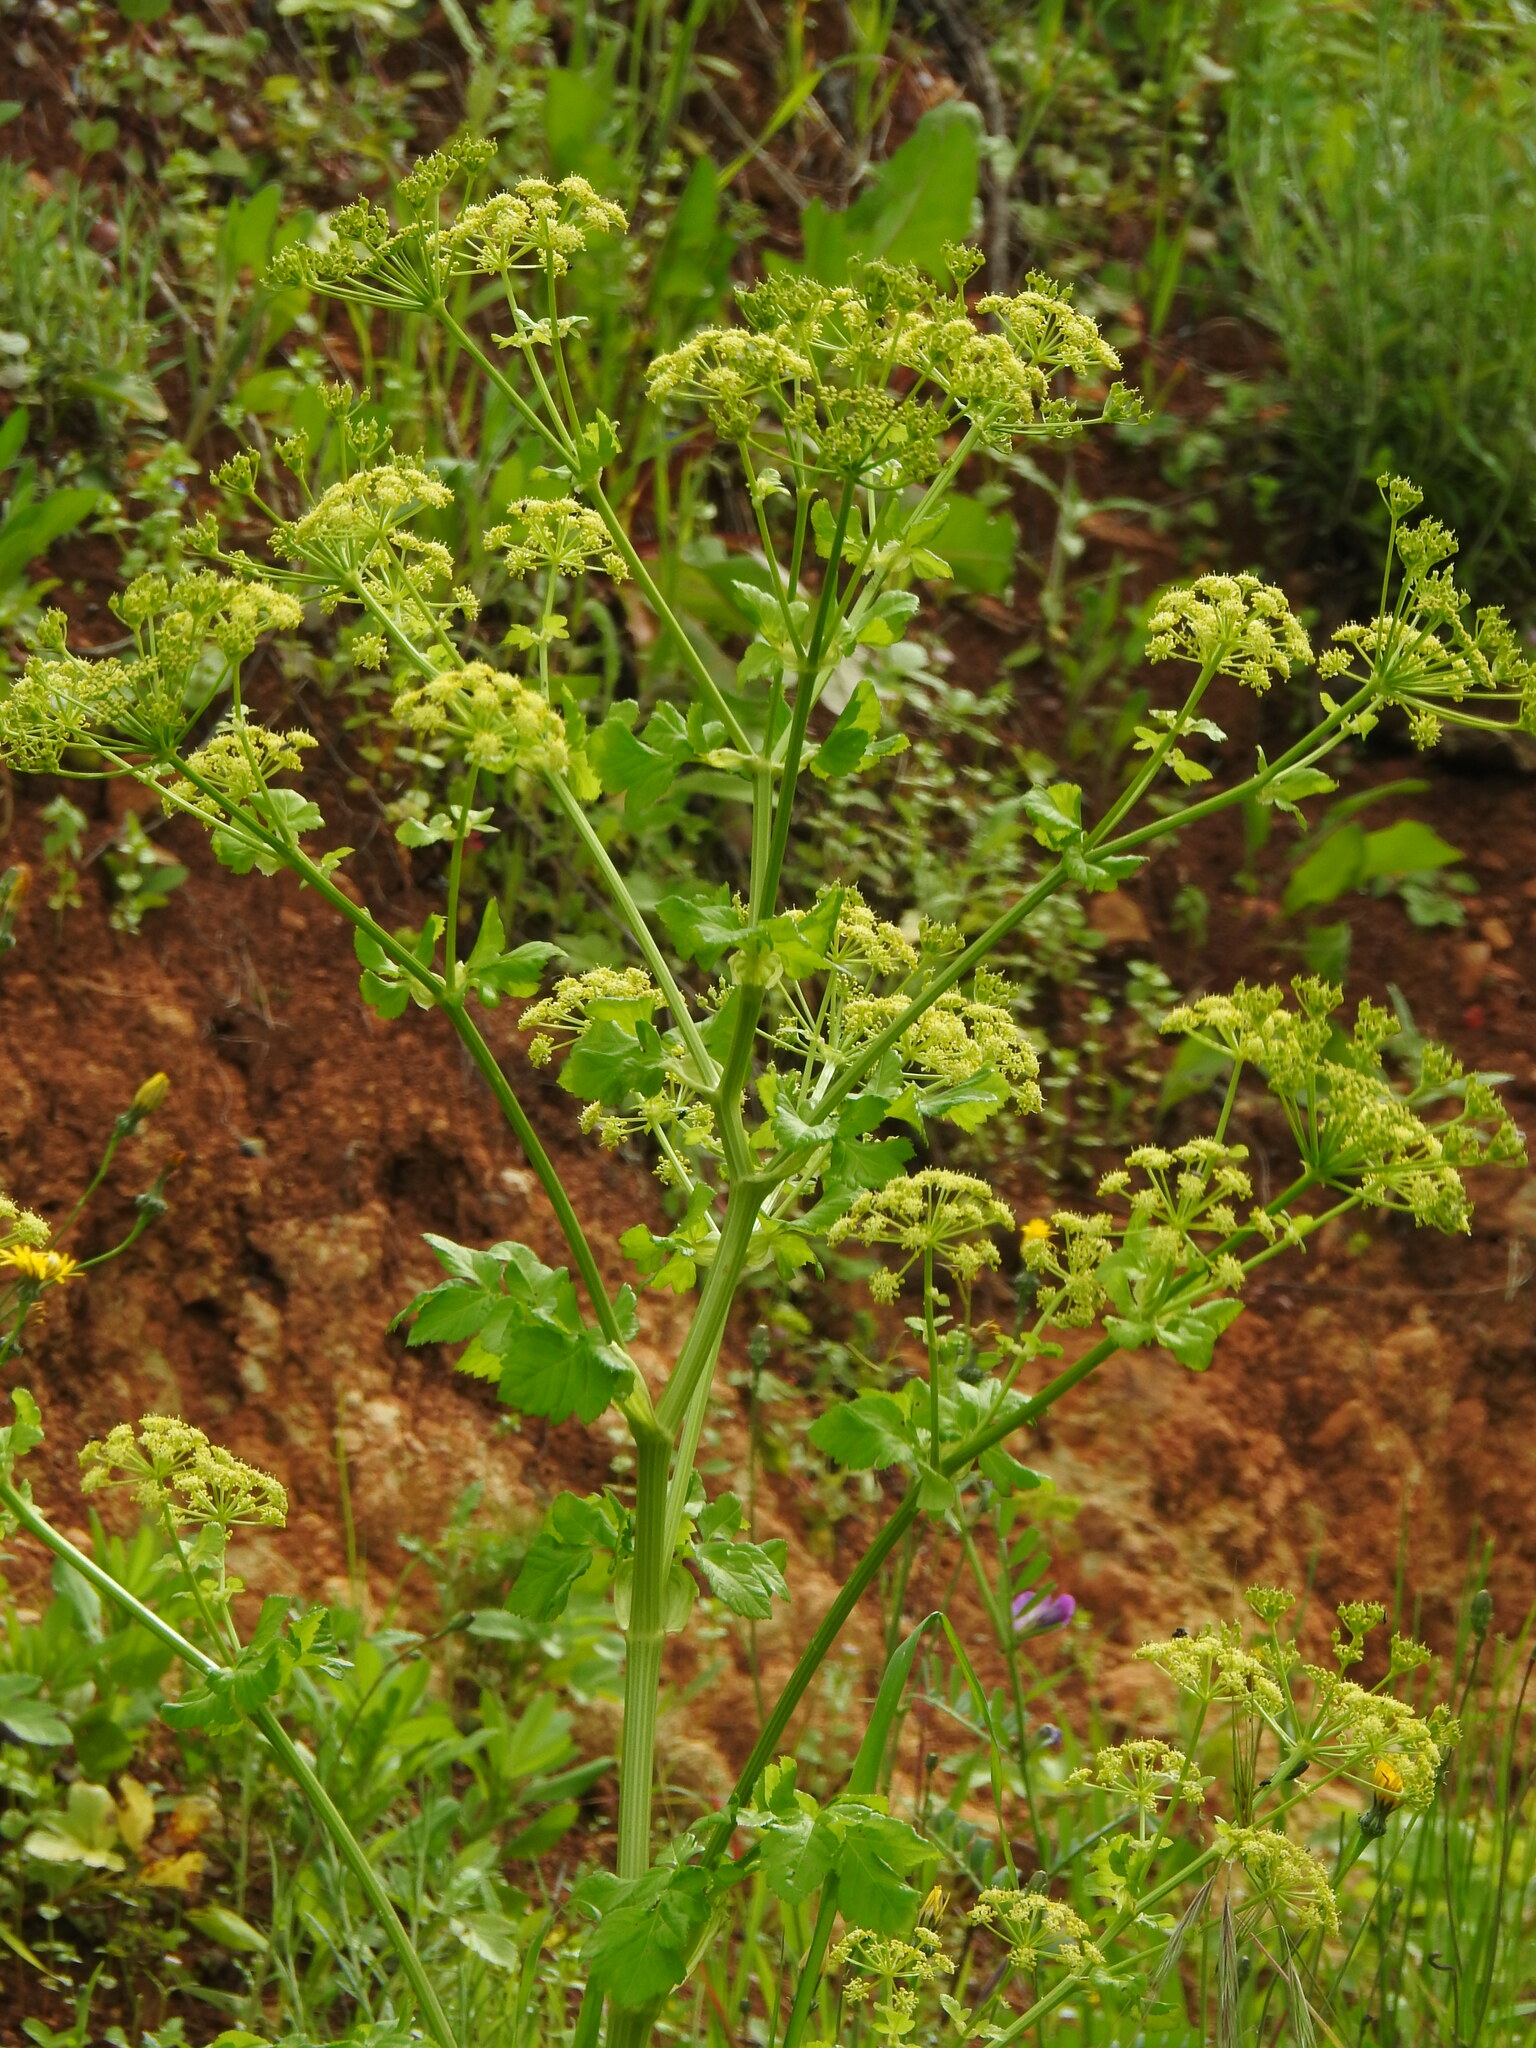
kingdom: Plantae
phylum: Tracheophyta
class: Magnoliopsida
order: Apiales
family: Apiaceae
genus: Smyrnium
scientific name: Smyrnium olusatrum
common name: Alexanders
